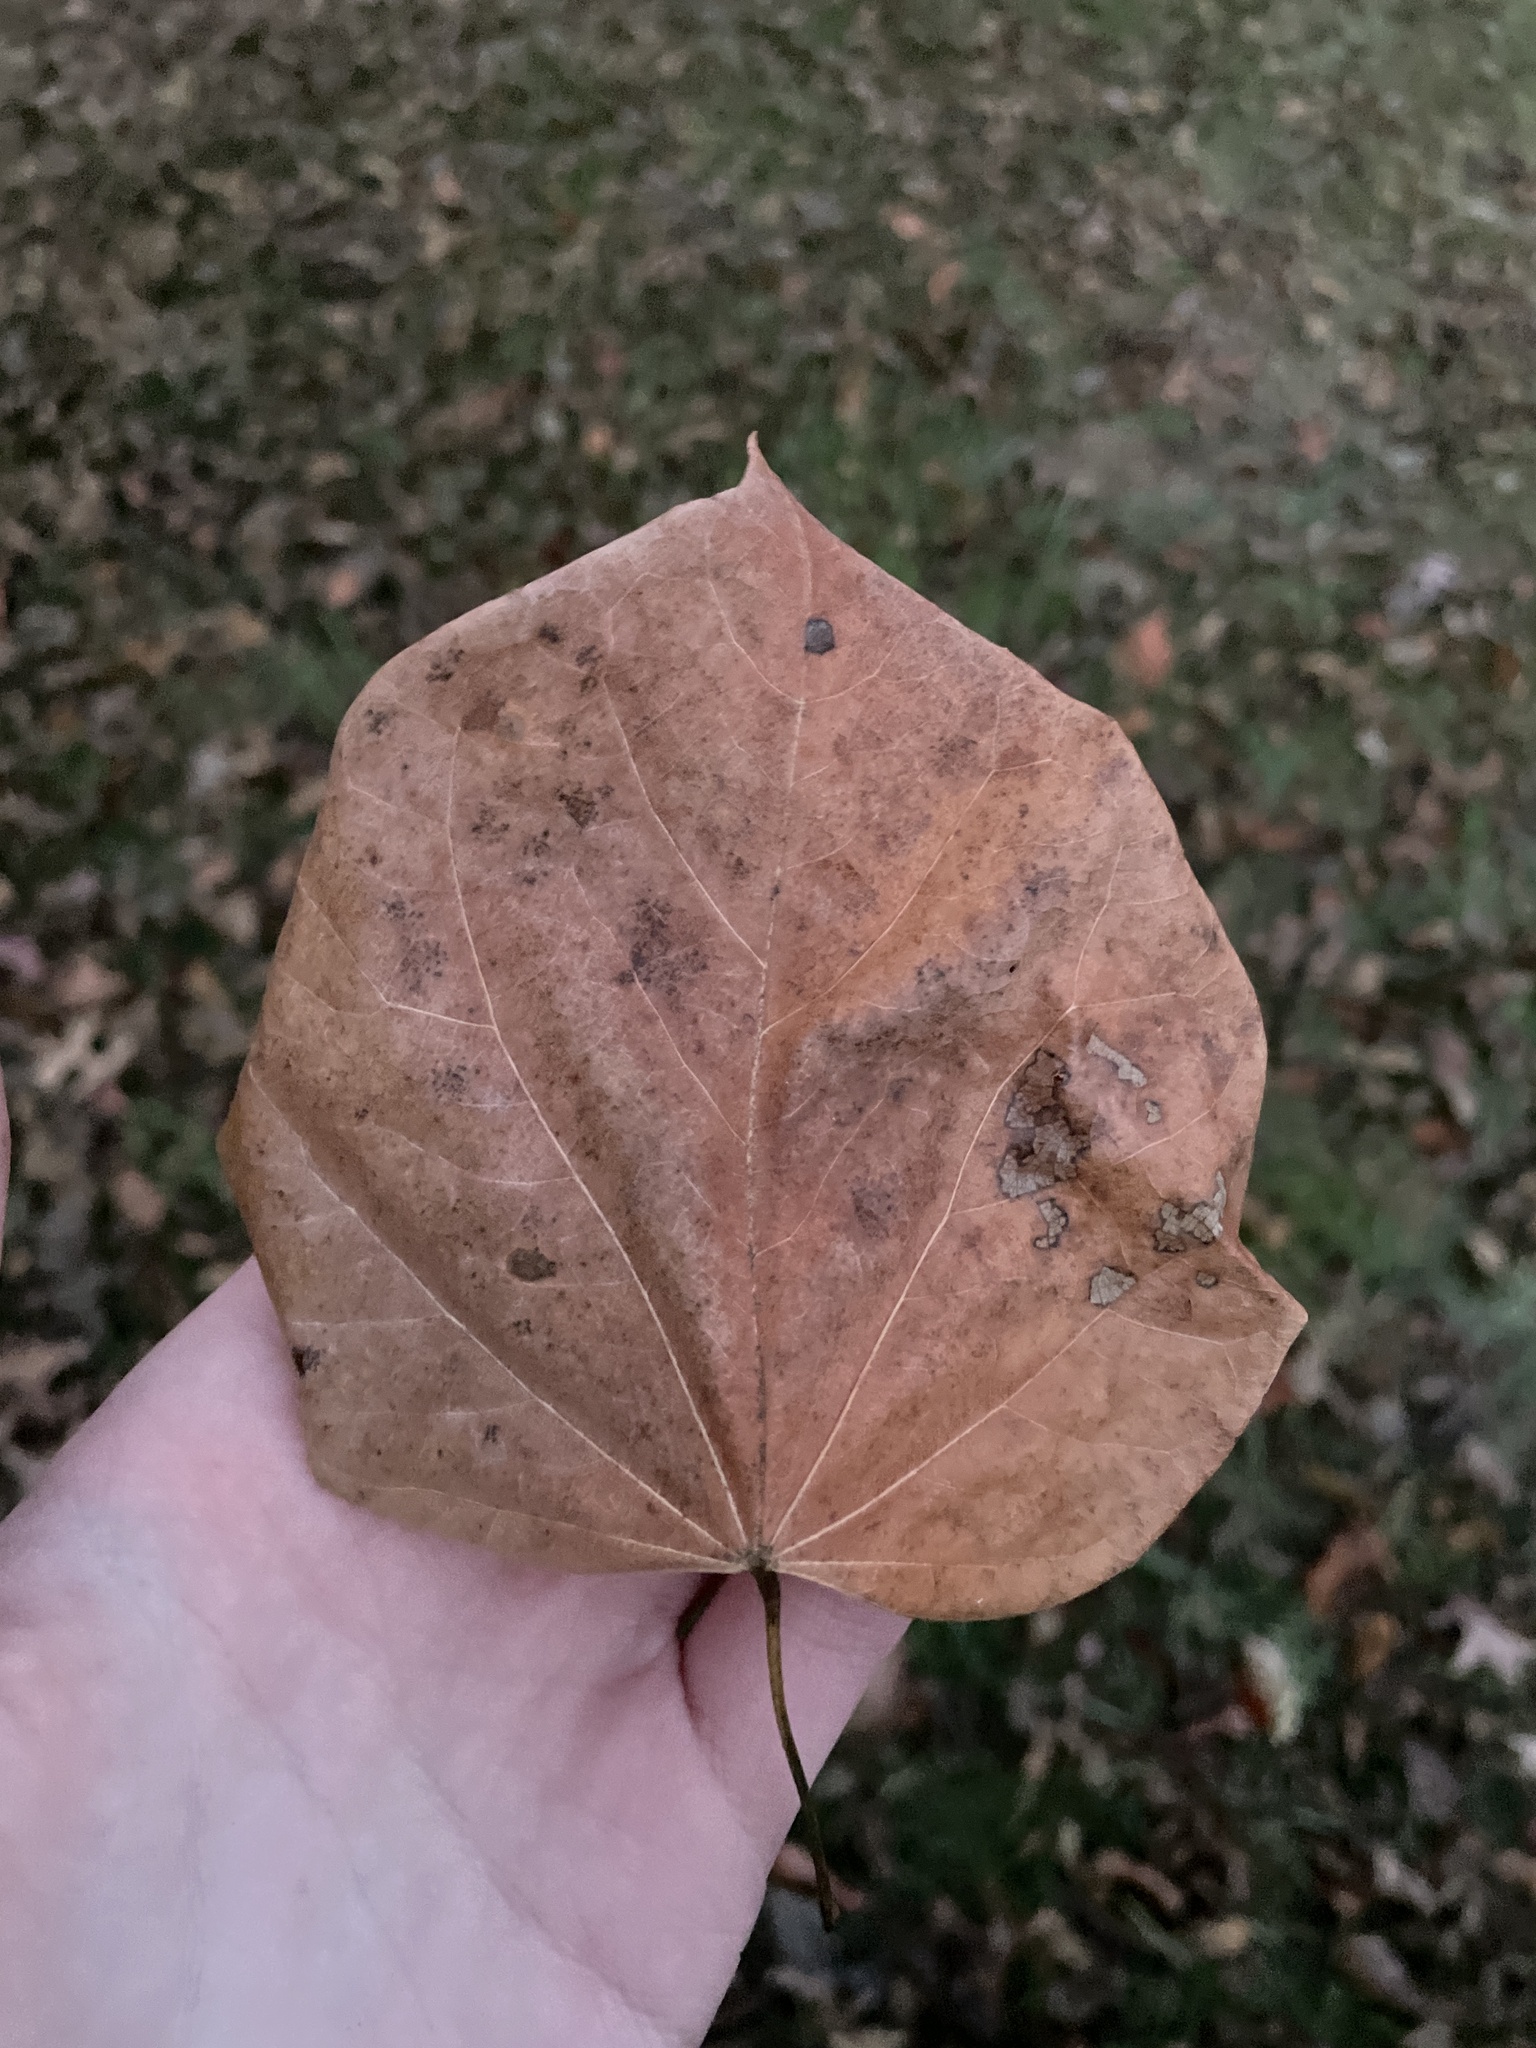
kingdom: Plantae
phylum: Tracheophyta
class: Magnoliopsida
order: Fabales
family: Fabaceae
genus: Cercis
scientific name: Cercis canadensis
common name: Eastern redbud
